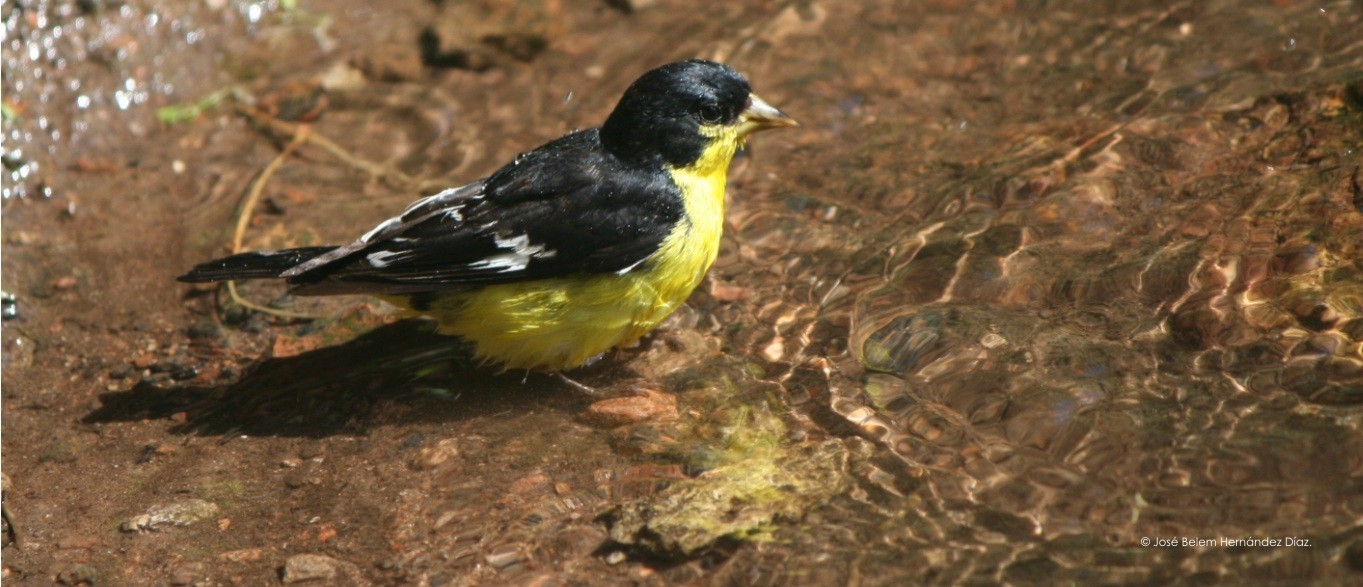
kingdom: Animalia
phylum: Chordata
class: Aves
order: Passeriformes
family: Fringillidae
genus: Spinus
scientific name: Spinus psaltria
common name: Lesser goldfinch
